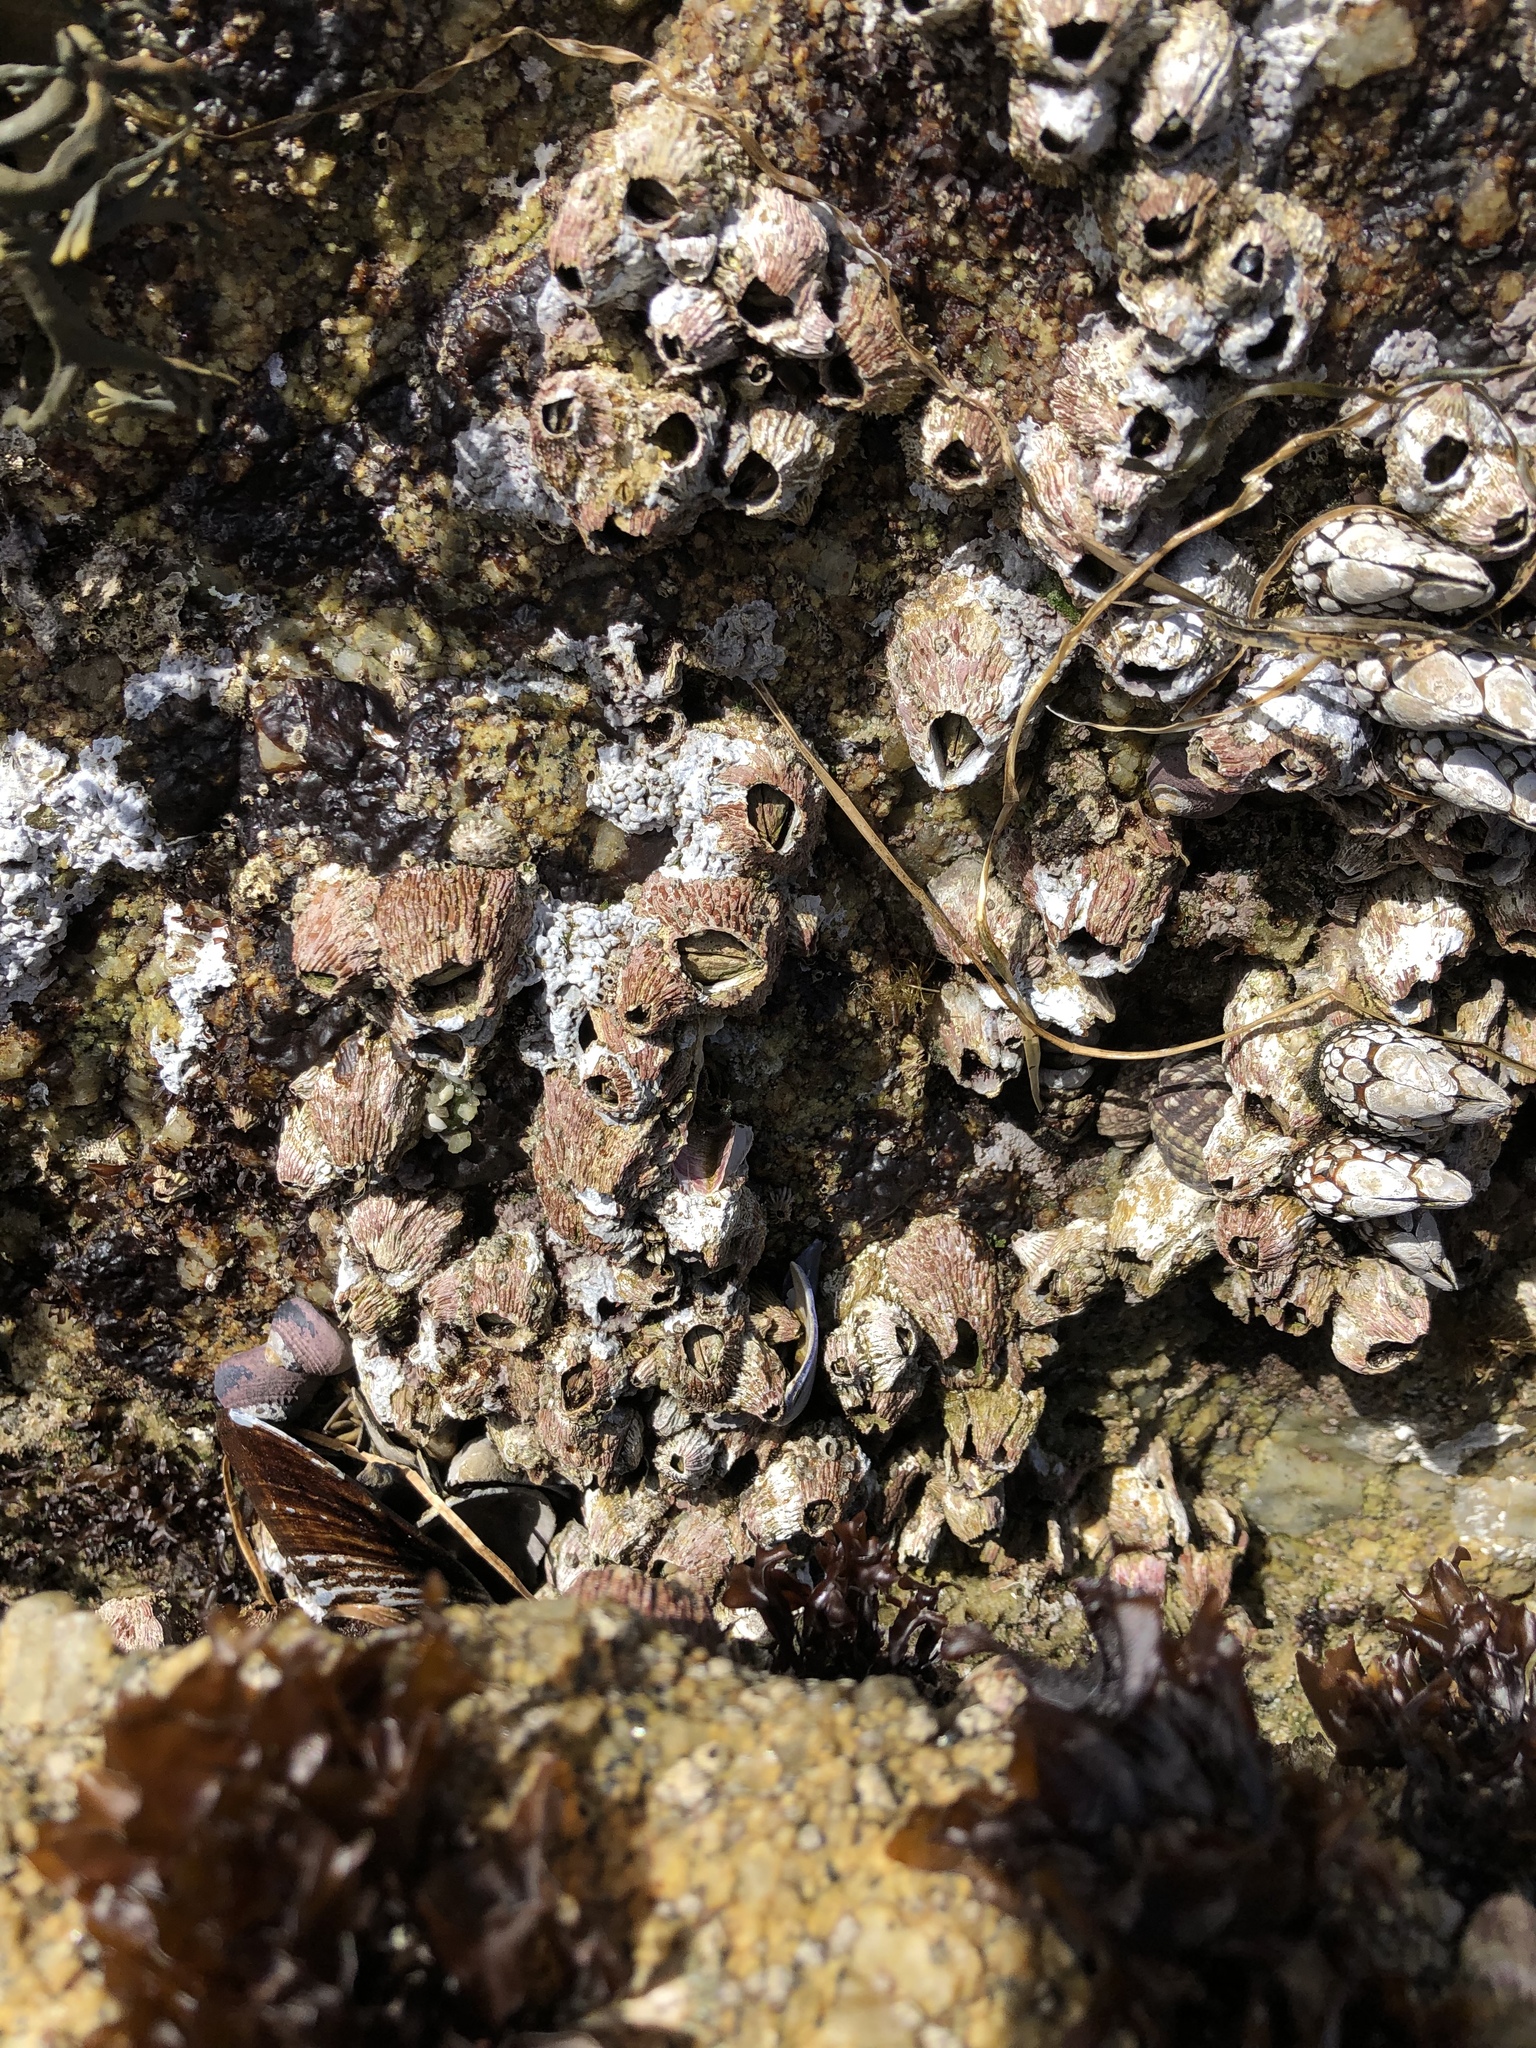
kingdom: Animalia
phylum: Arthropoda
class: Maxillopoda
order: Sessilia
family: Tetraclitidae
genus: Tetraclita
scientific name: Tetraclita rubescens
